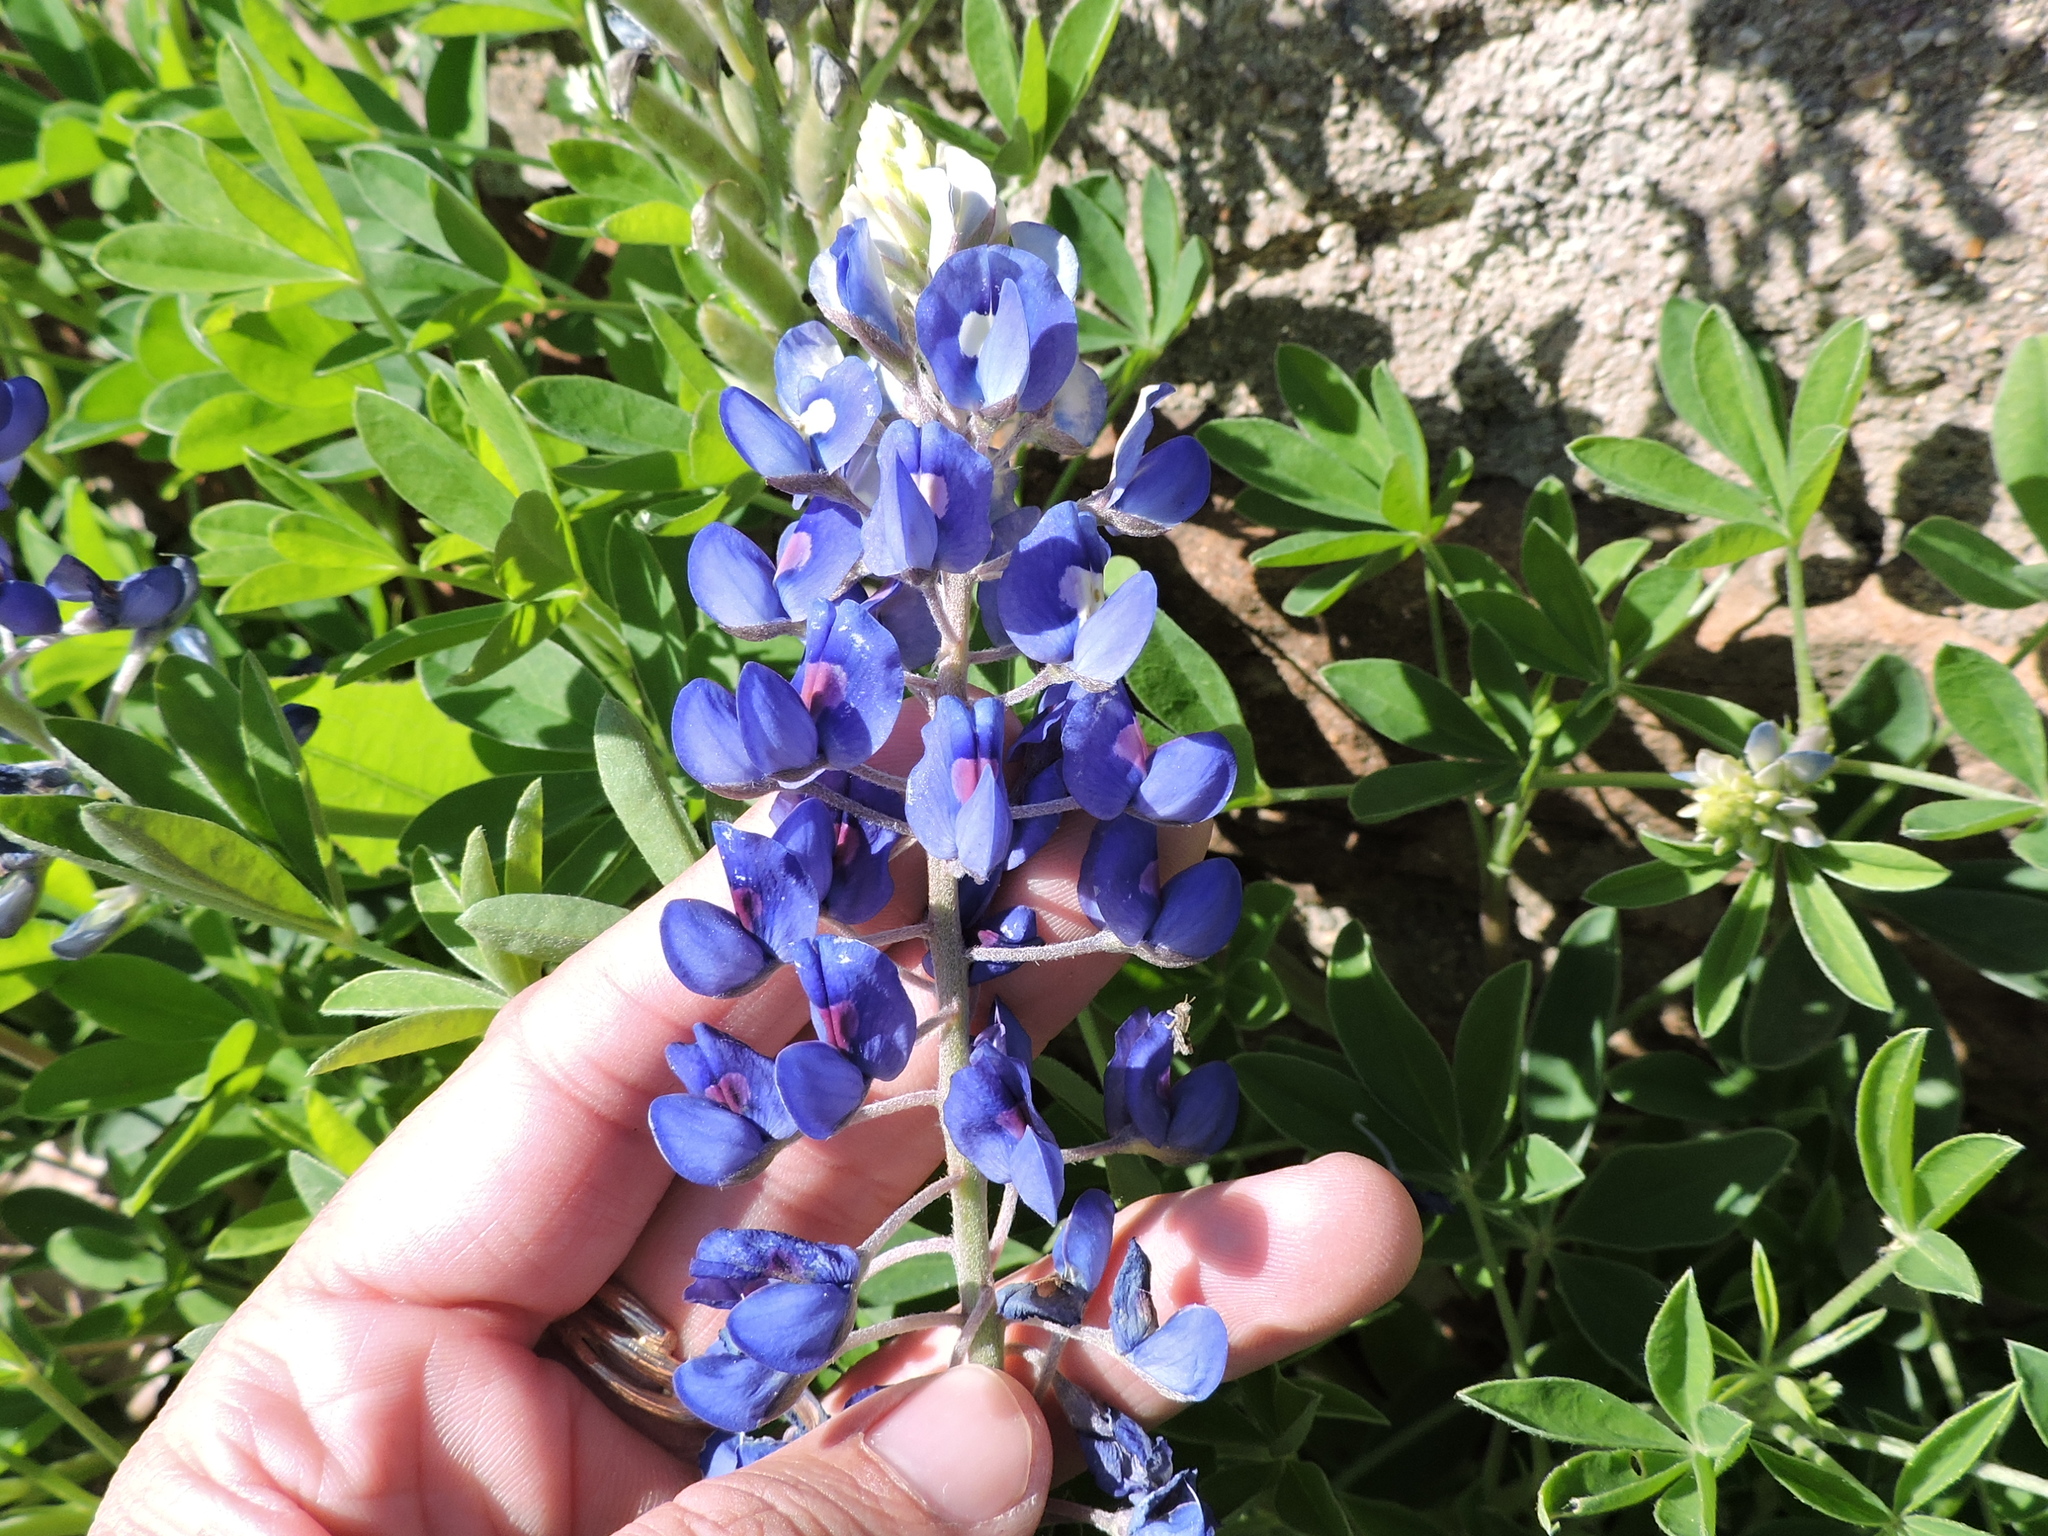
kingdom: Plantae
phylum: Tracheophyta
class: Magnoliopsida
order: Fabales
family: Fabaceae
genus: Lupinus
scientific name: Lupinus texensis
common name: Texas bluebonnet
